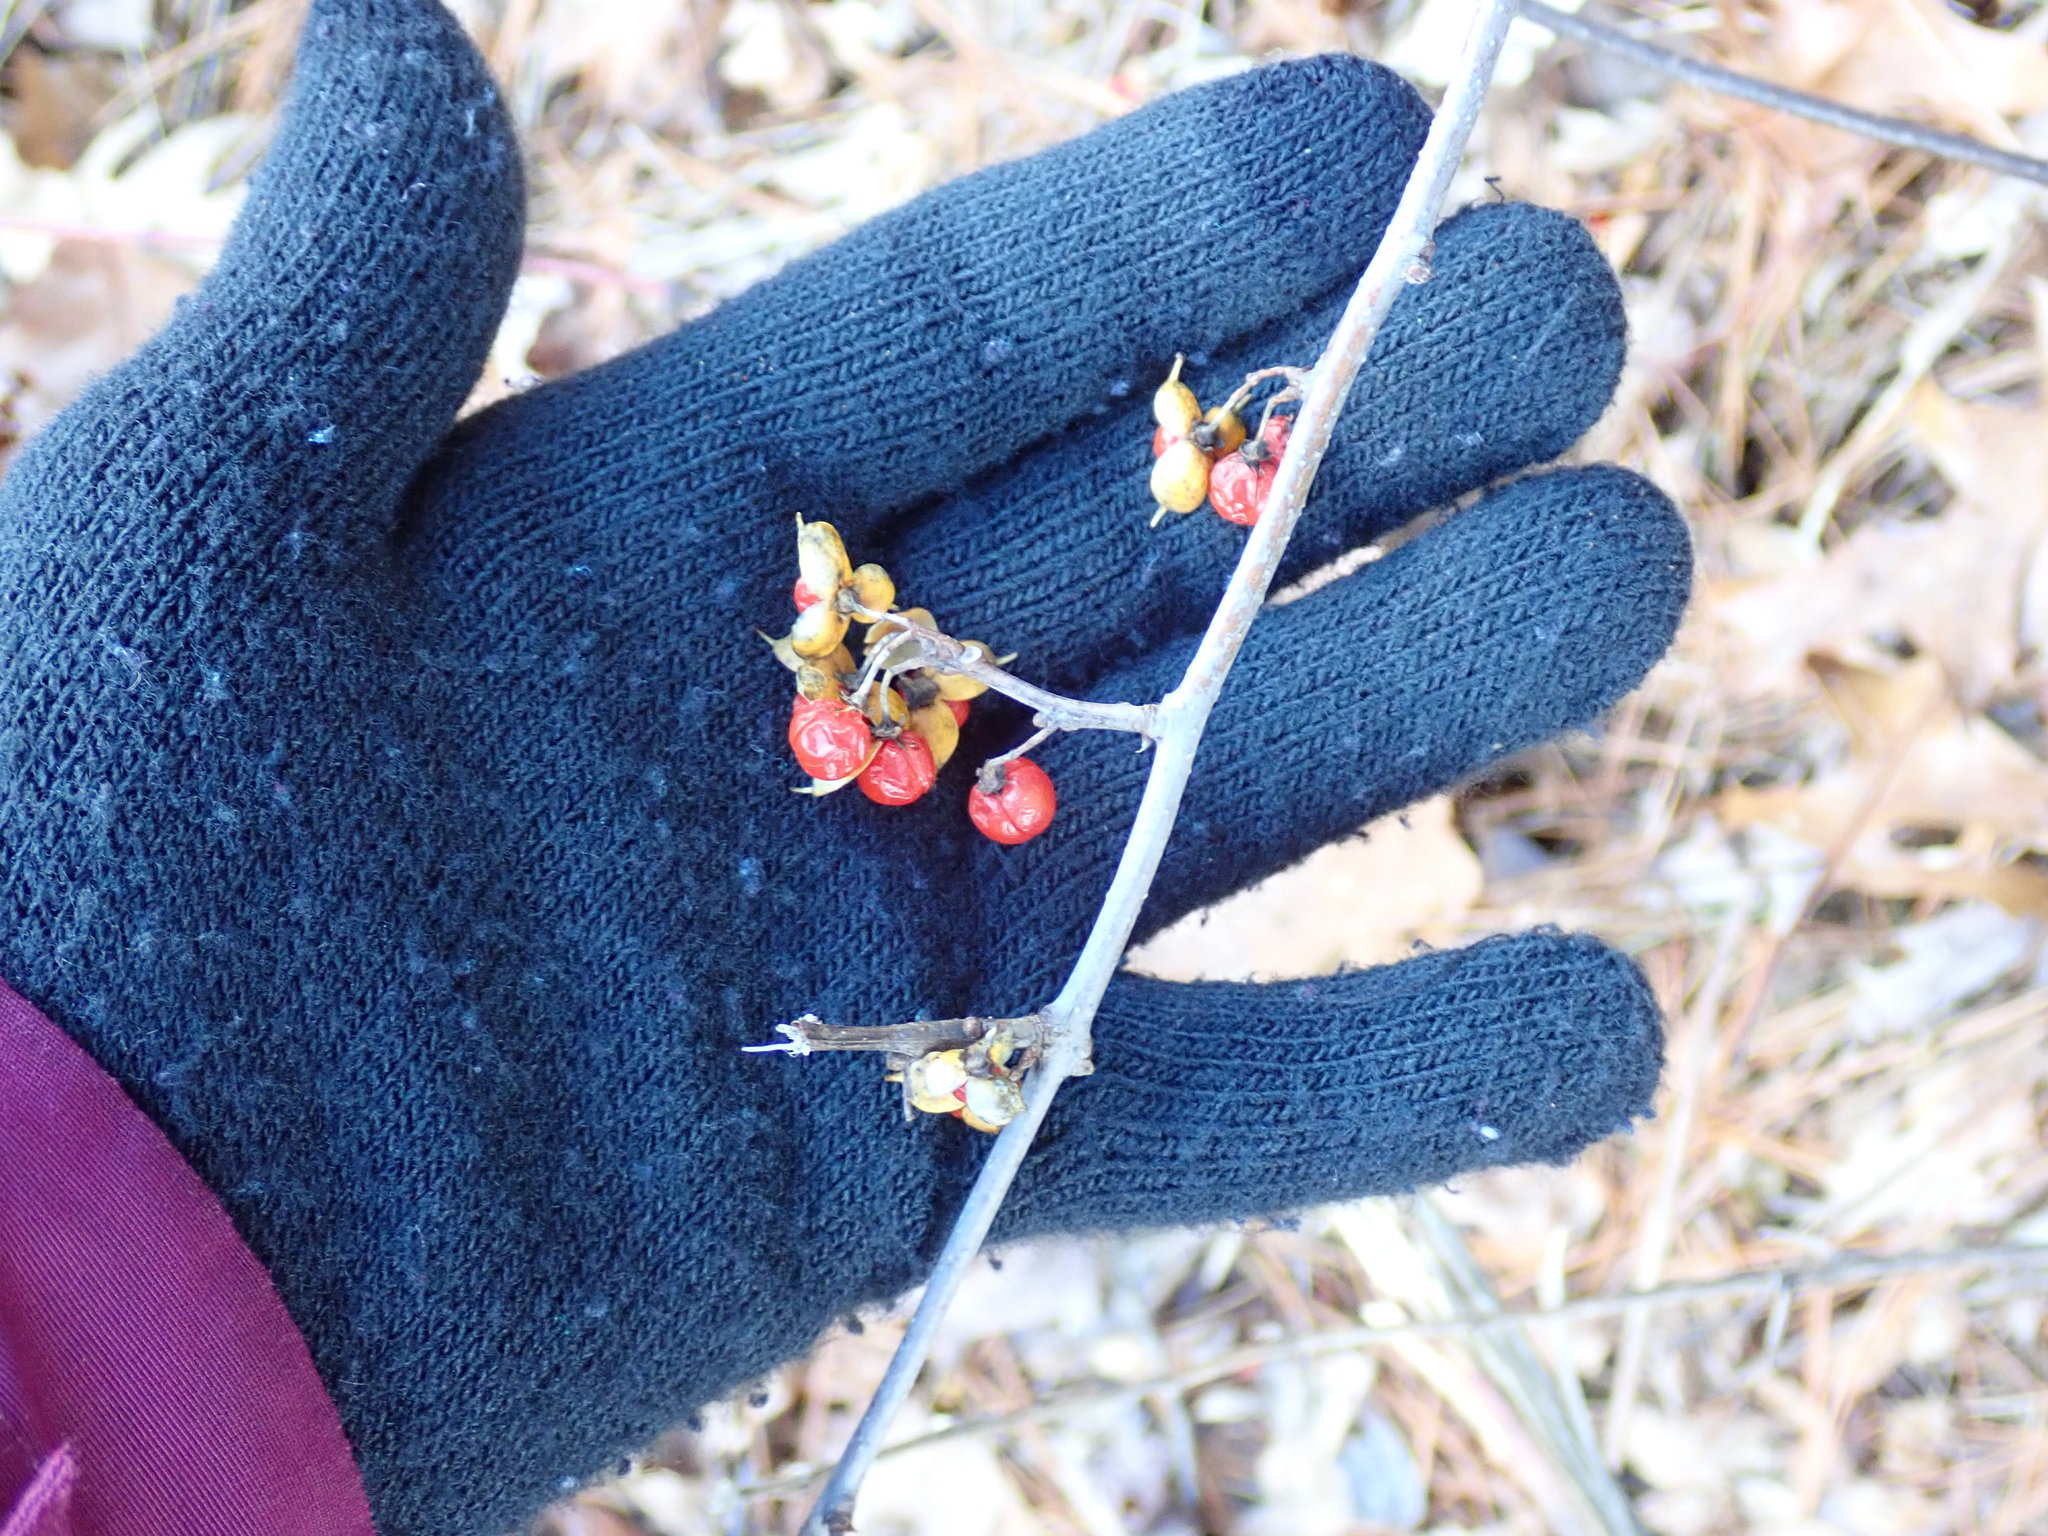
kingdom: Plantae
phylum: Tracheophyta
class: Magnoliopsida
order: Celastrales
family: Celastraceae
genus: Celastrus
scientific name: Celastrus orbiculatus
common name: Oriental bittersweet
